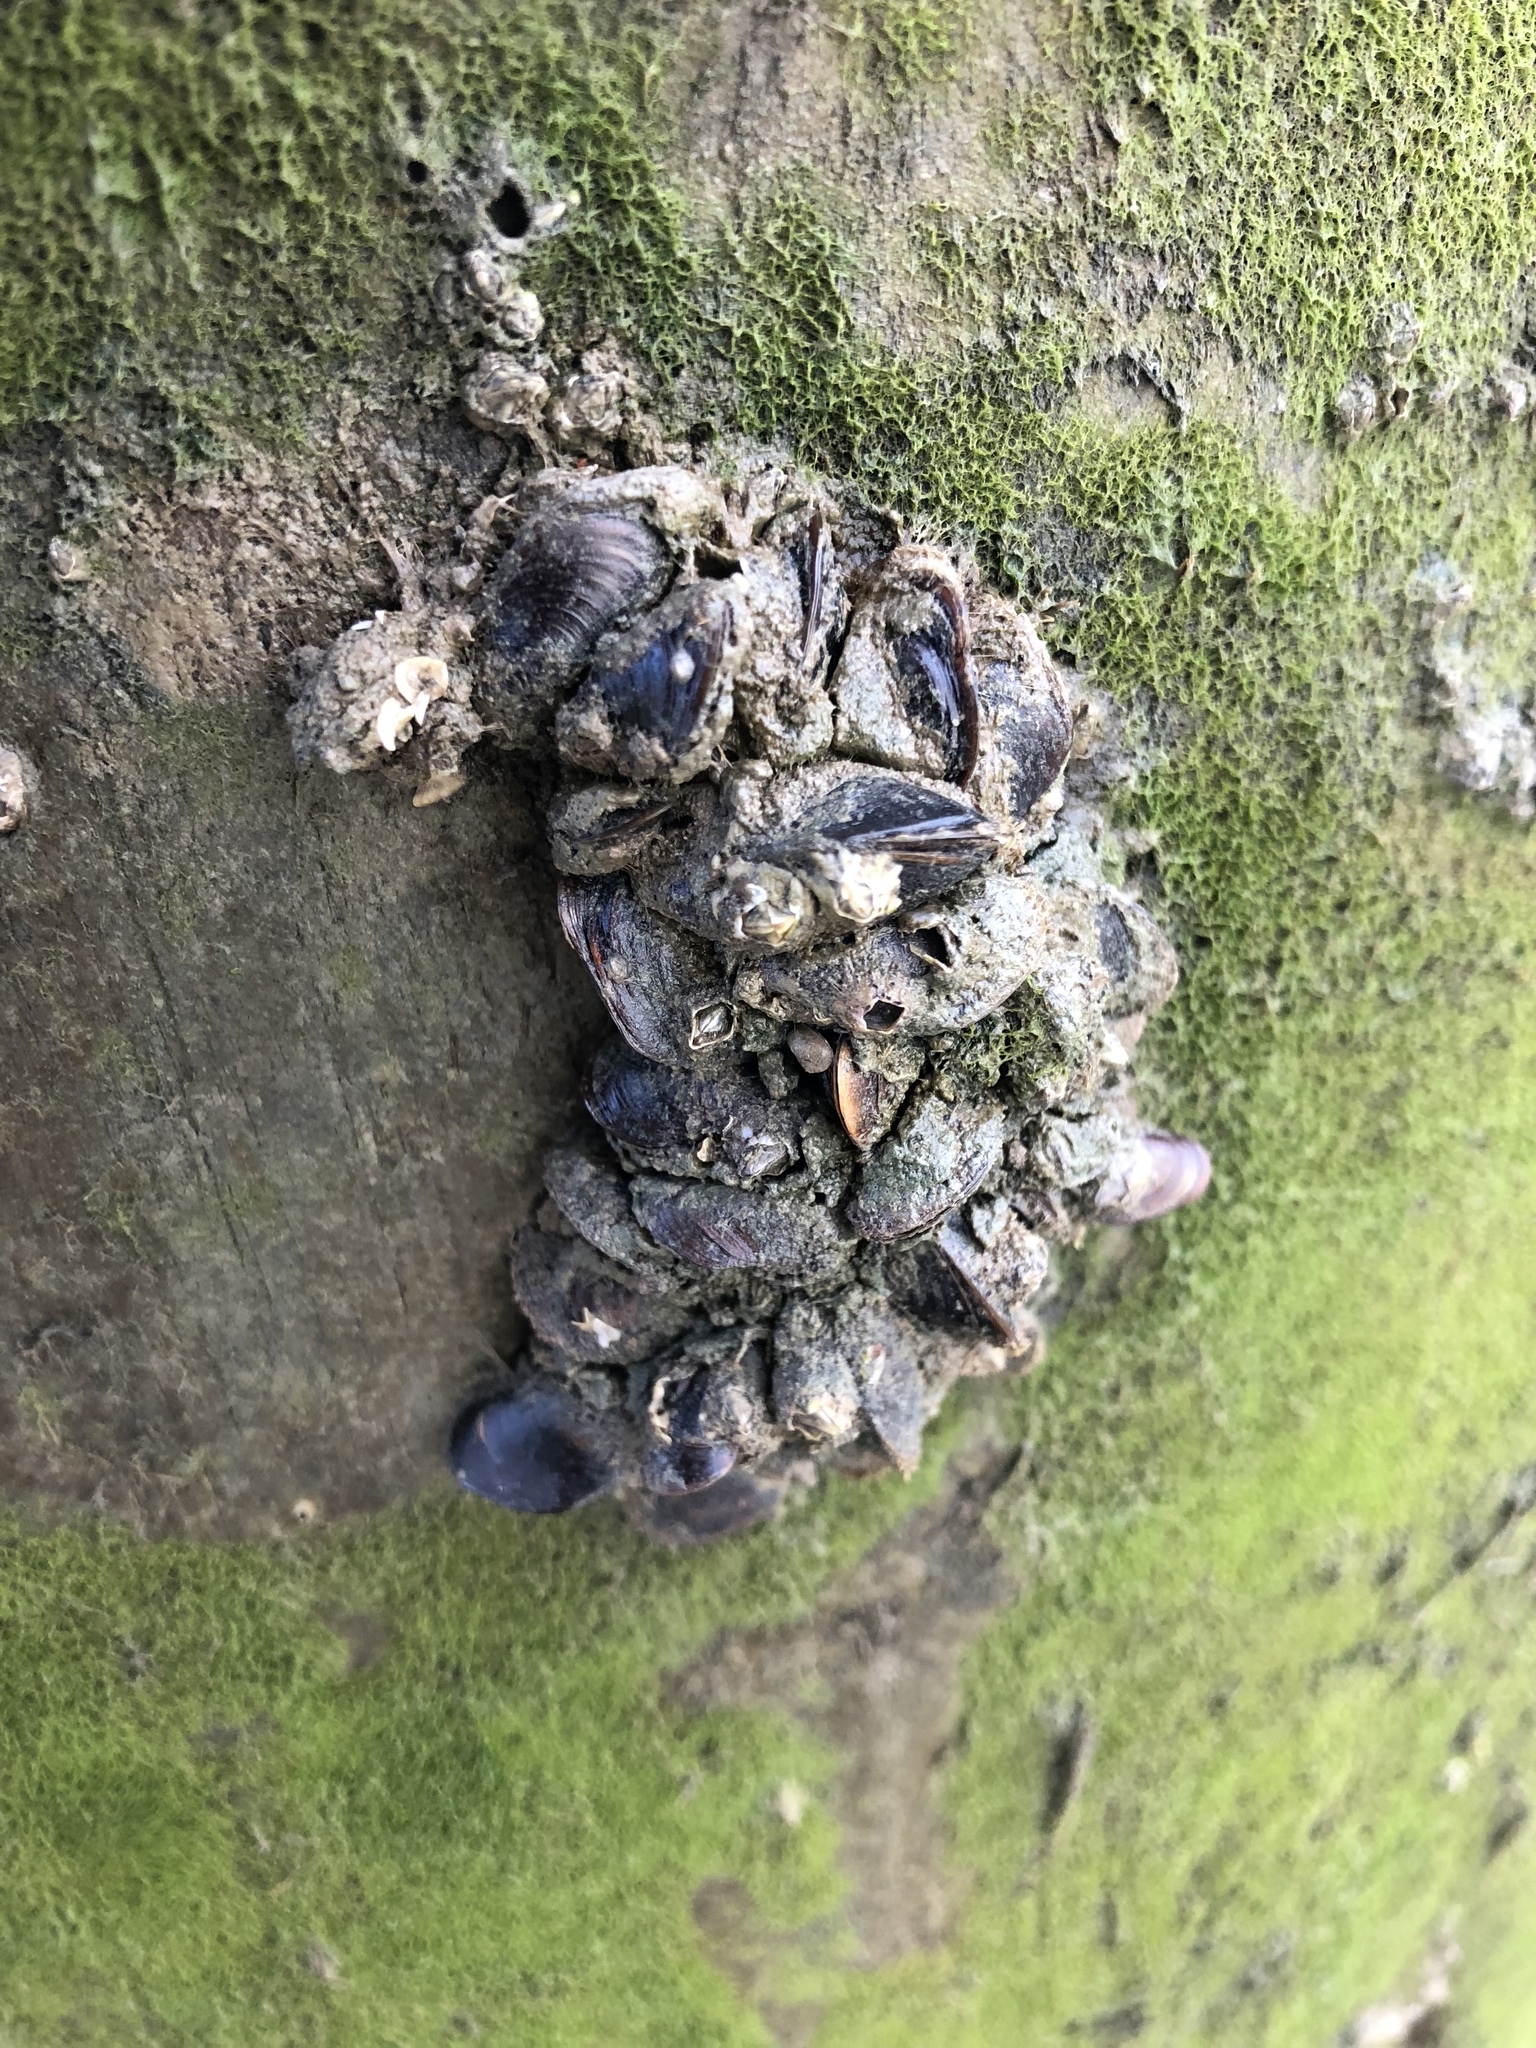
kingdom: Animalia
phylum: Mollusca
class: Bivalvia
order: Mytilida
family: Mytilidae
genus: Xenostrobus
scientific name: Xenostrobus securis
